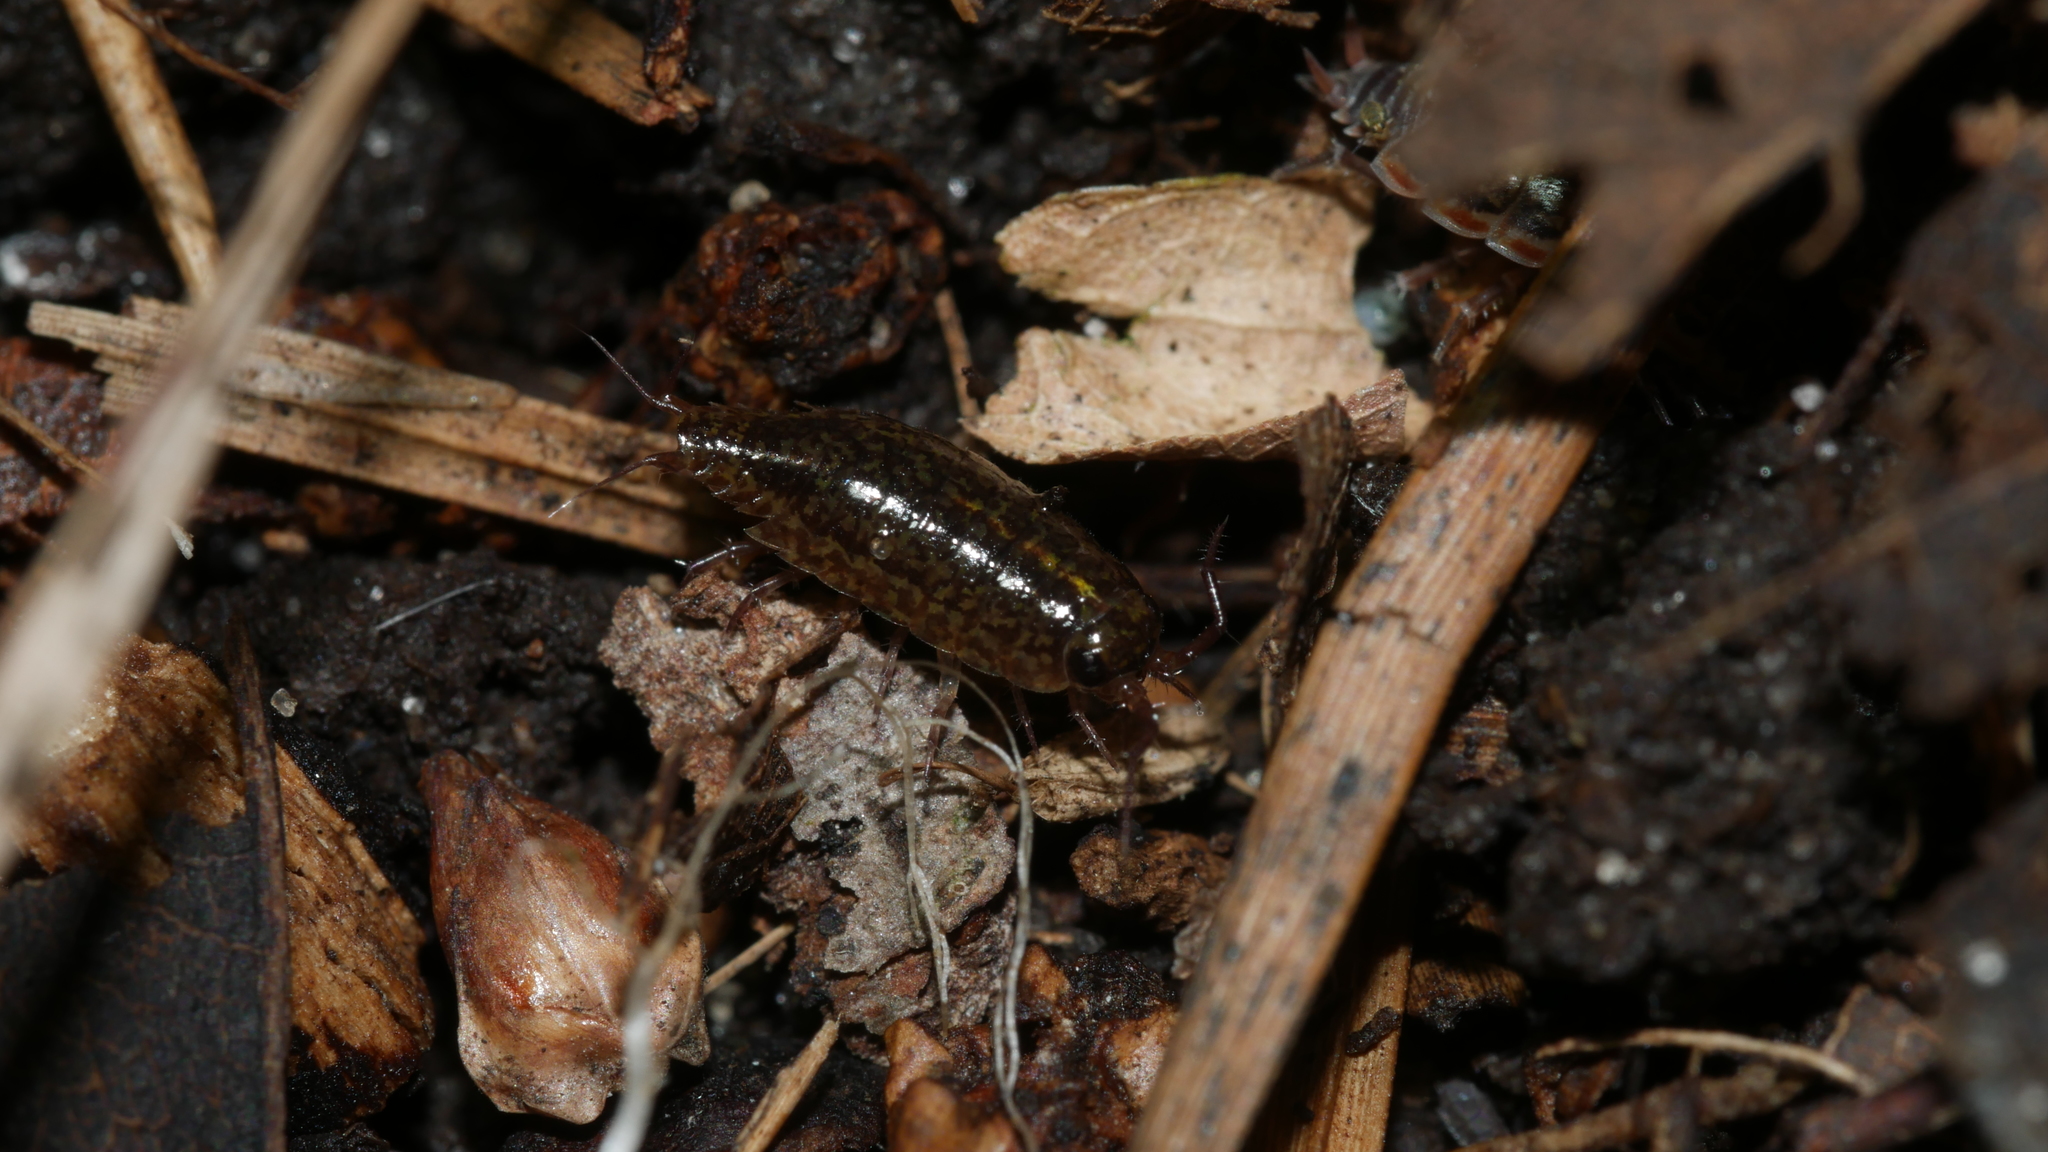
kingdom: Animalia
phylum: Arthropoda
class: Malacostraca
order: Isopoda
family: Ligiidae
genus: Ligidium
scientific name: Ligidium elrodii
